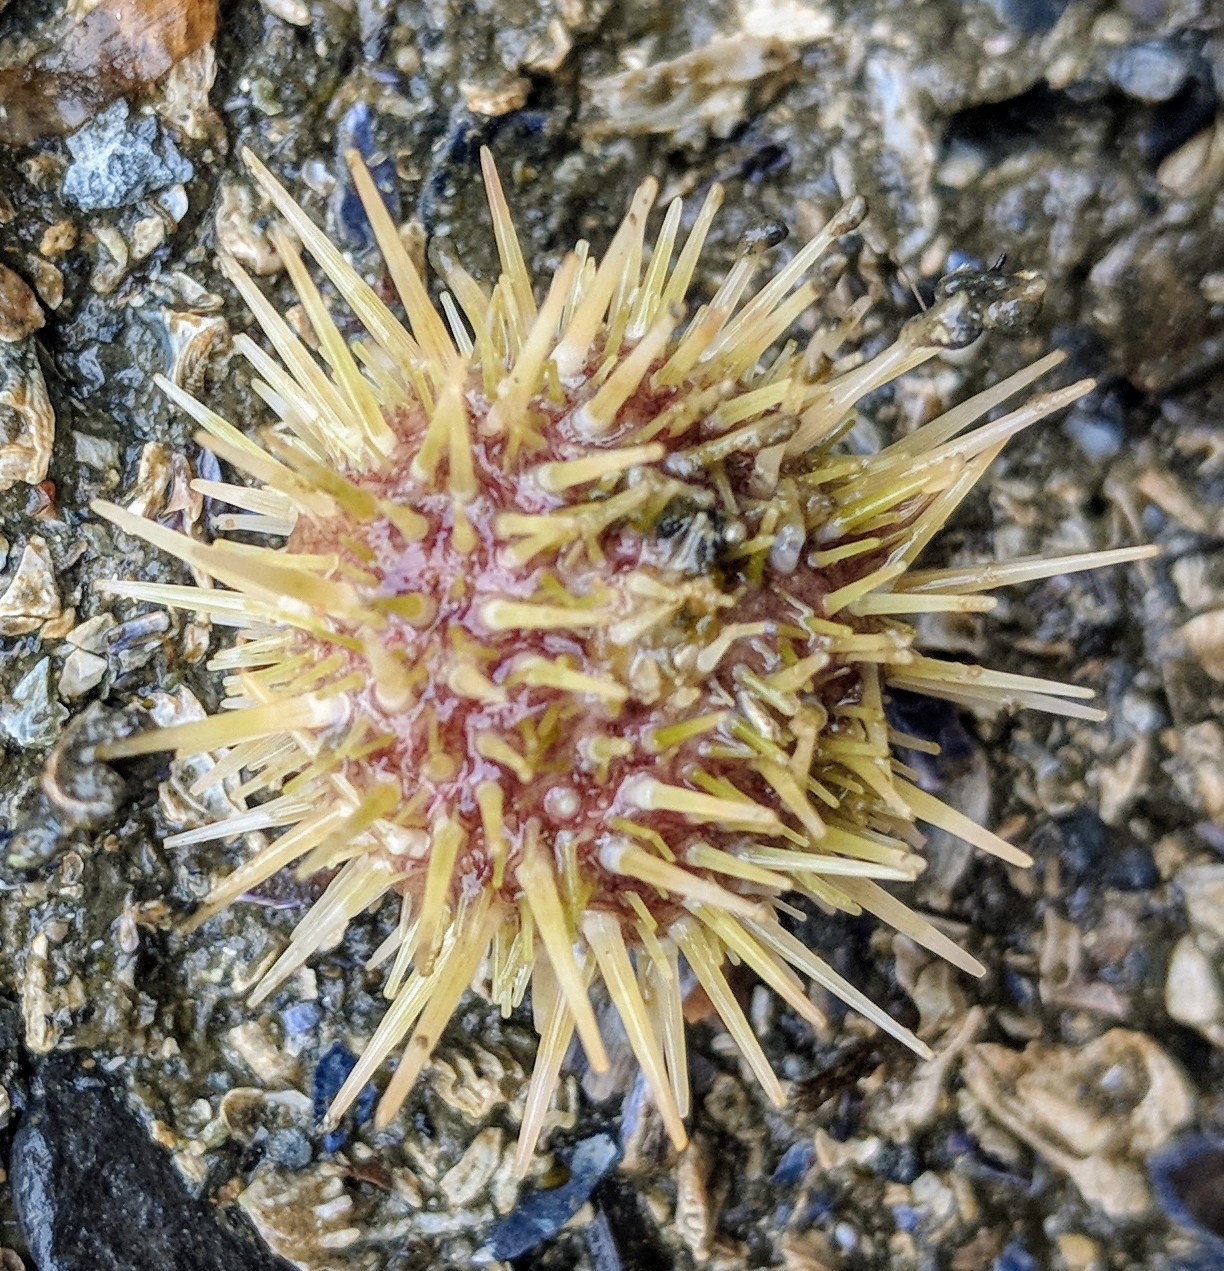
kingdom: Animalia
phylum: Echinodermata
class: Echinoidea
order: Camarodonta
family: Strongylocentrotidae
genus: Strongylocentrotus
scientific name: Strongylocentrotus droebachiensis
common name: Northern sea urchin
